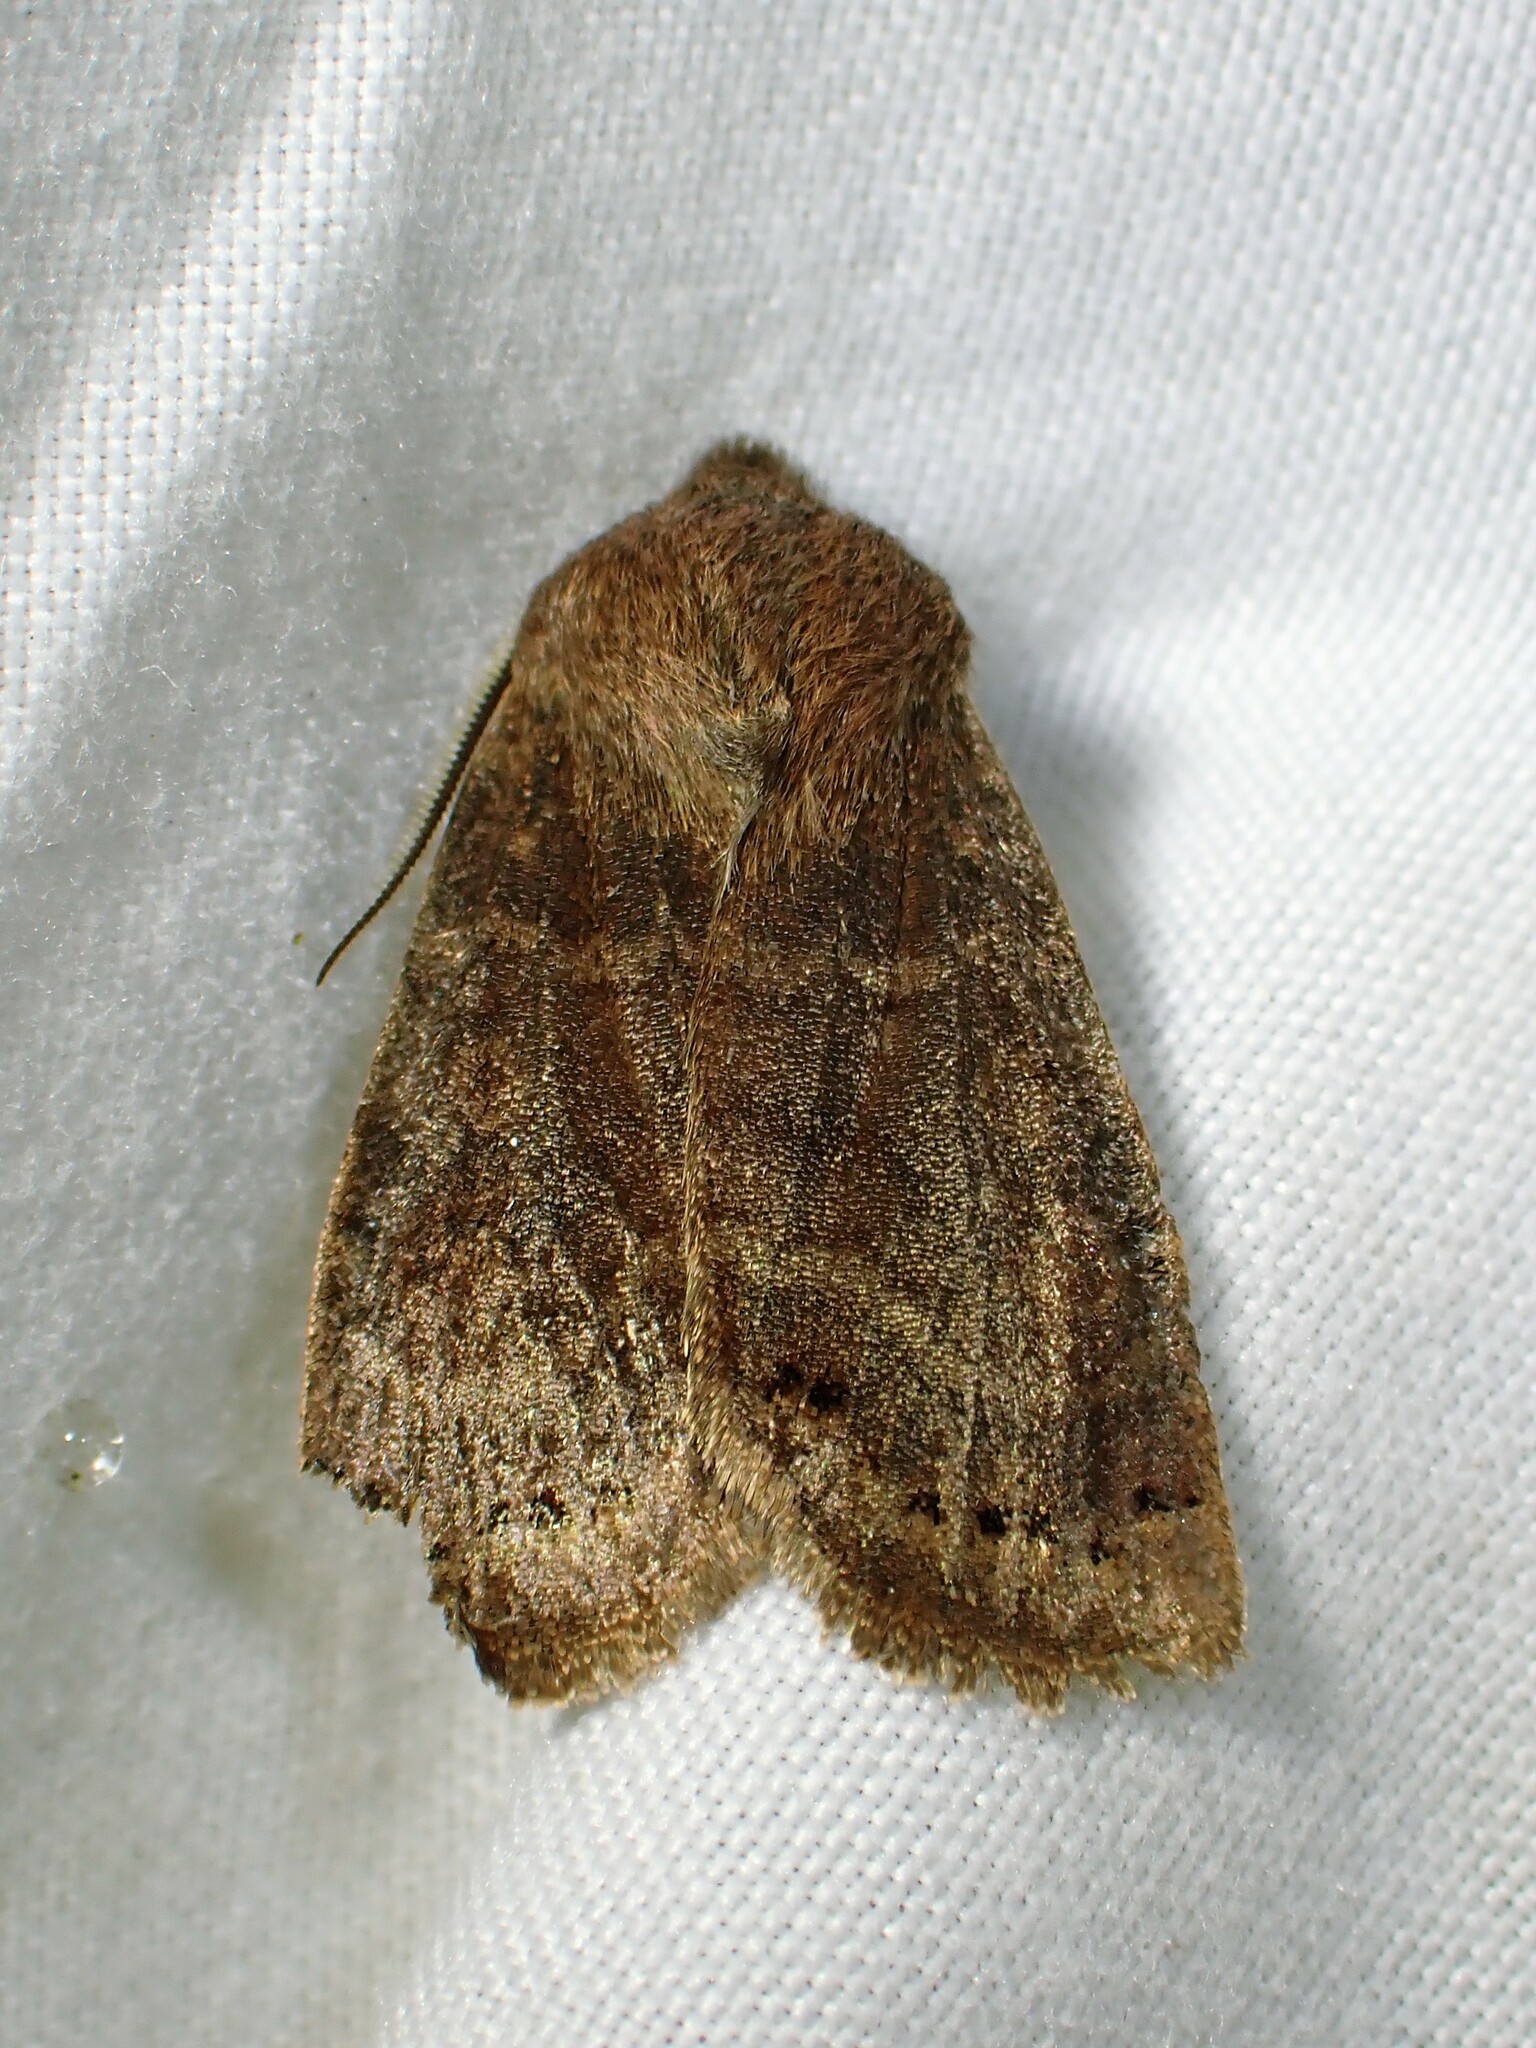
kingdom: Animalia
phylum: Arthropoda
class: Insecta
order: Lepidoptera
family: Noctuidae
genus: Homoglaea
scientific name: Homoglaea hircina
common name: Goat sallow
